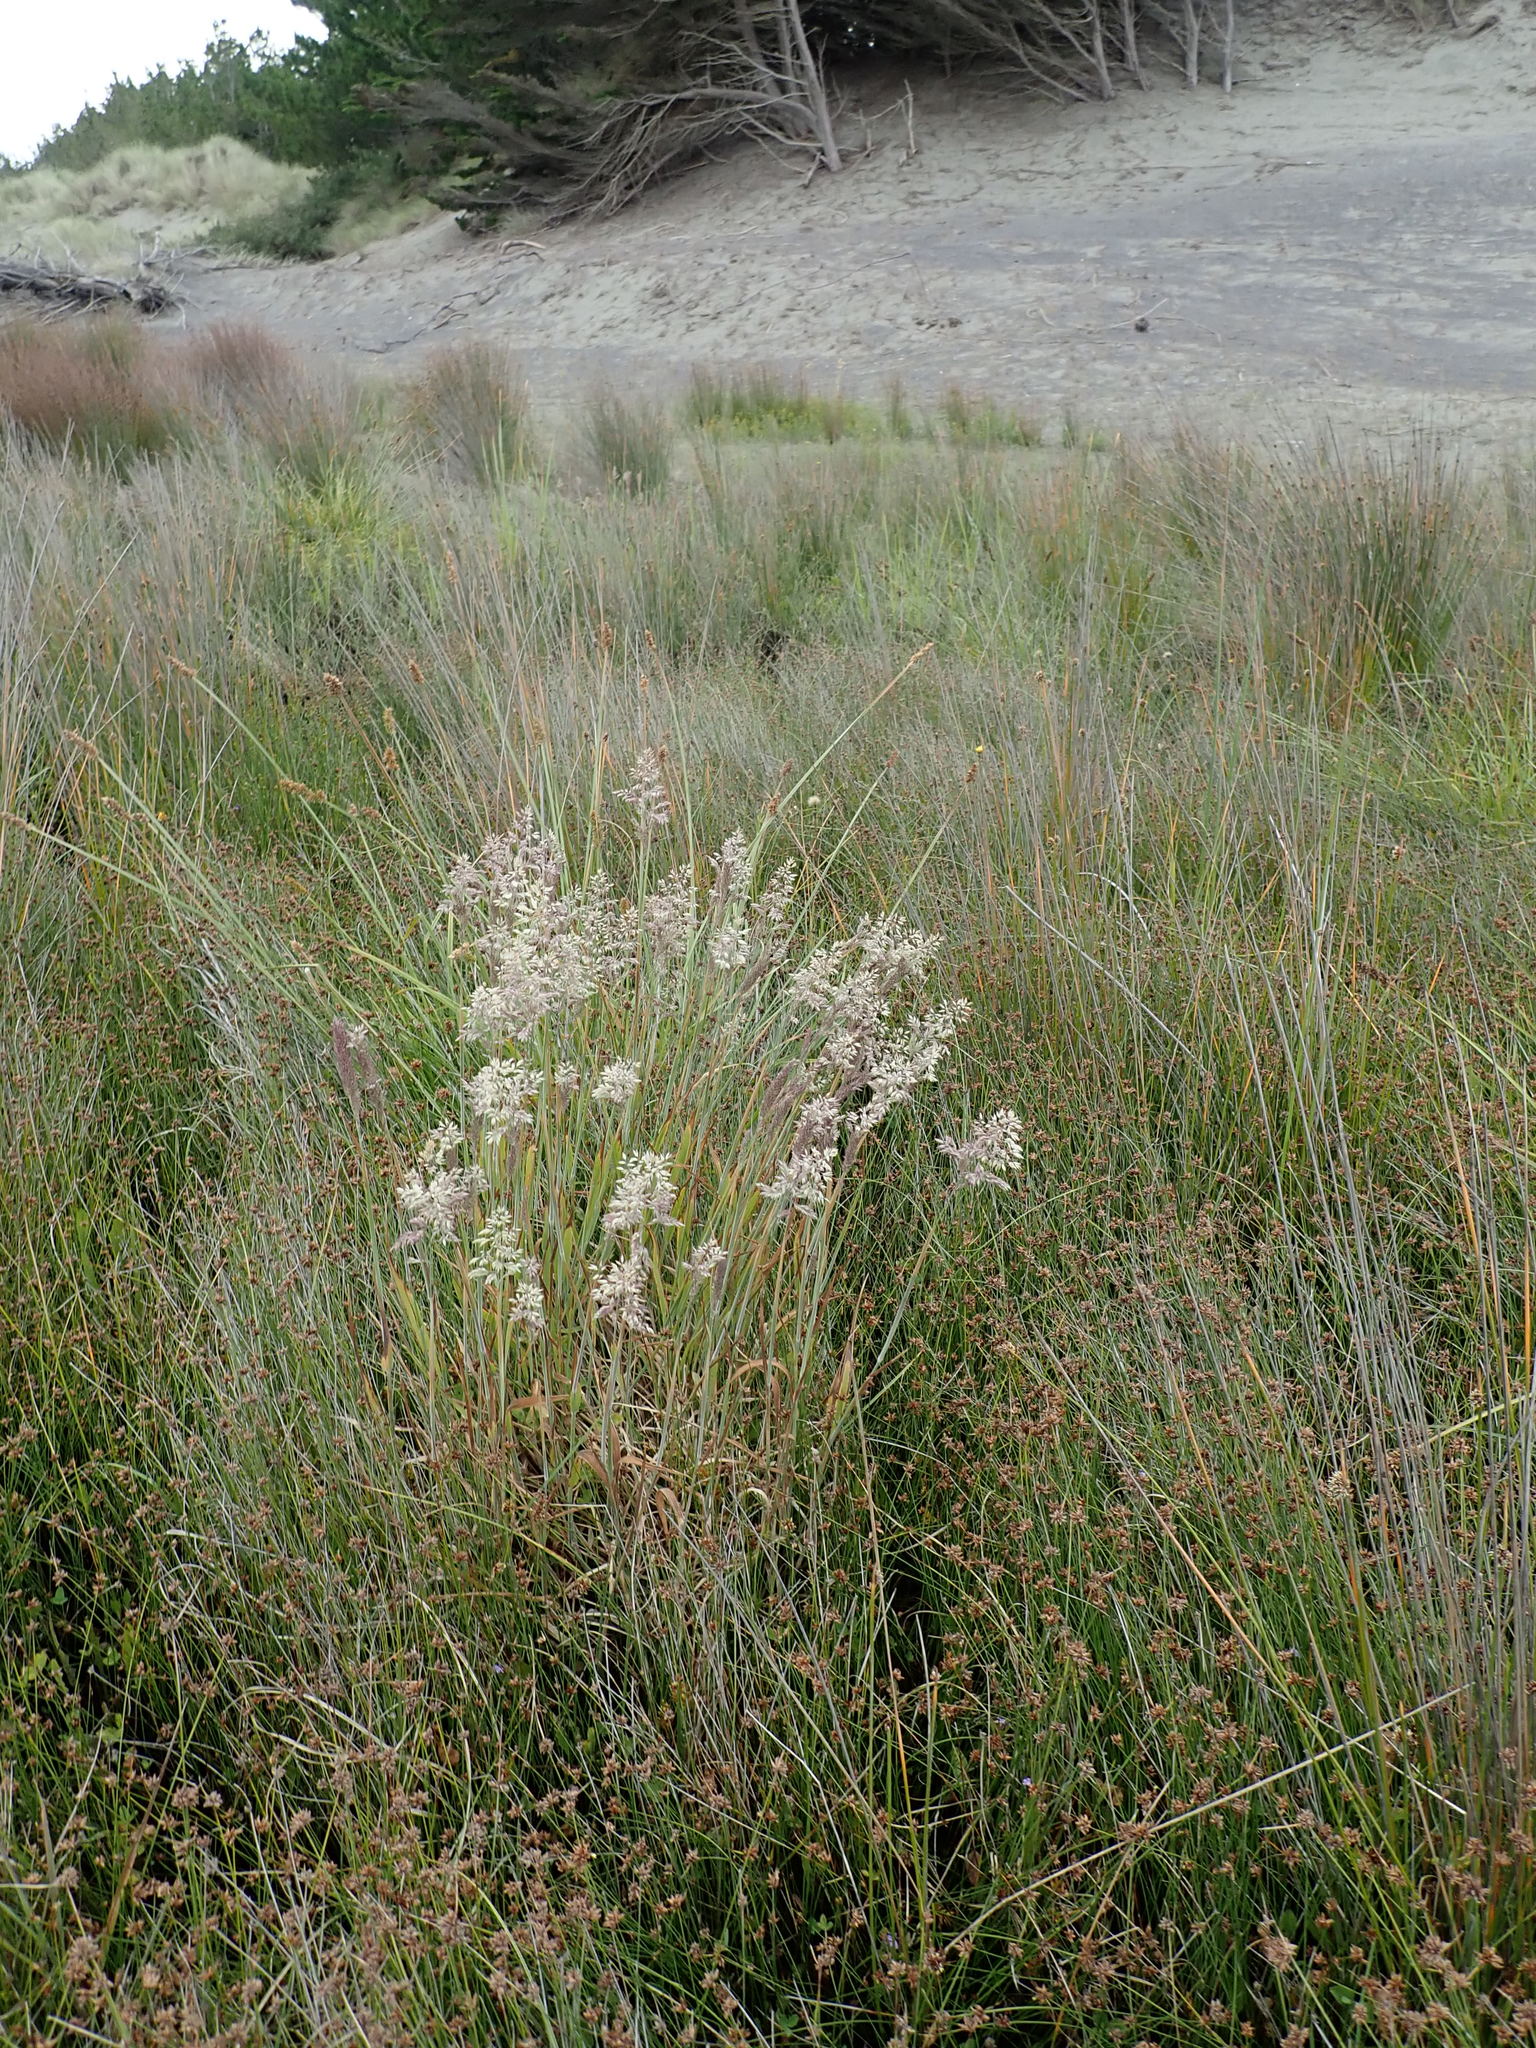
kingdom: Plantae
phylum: Tracheophyta
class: Liliopsida
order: Poales
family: Poaceae
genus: Holcus
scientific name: Holcus lanatus
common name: Yorkshire-fog
